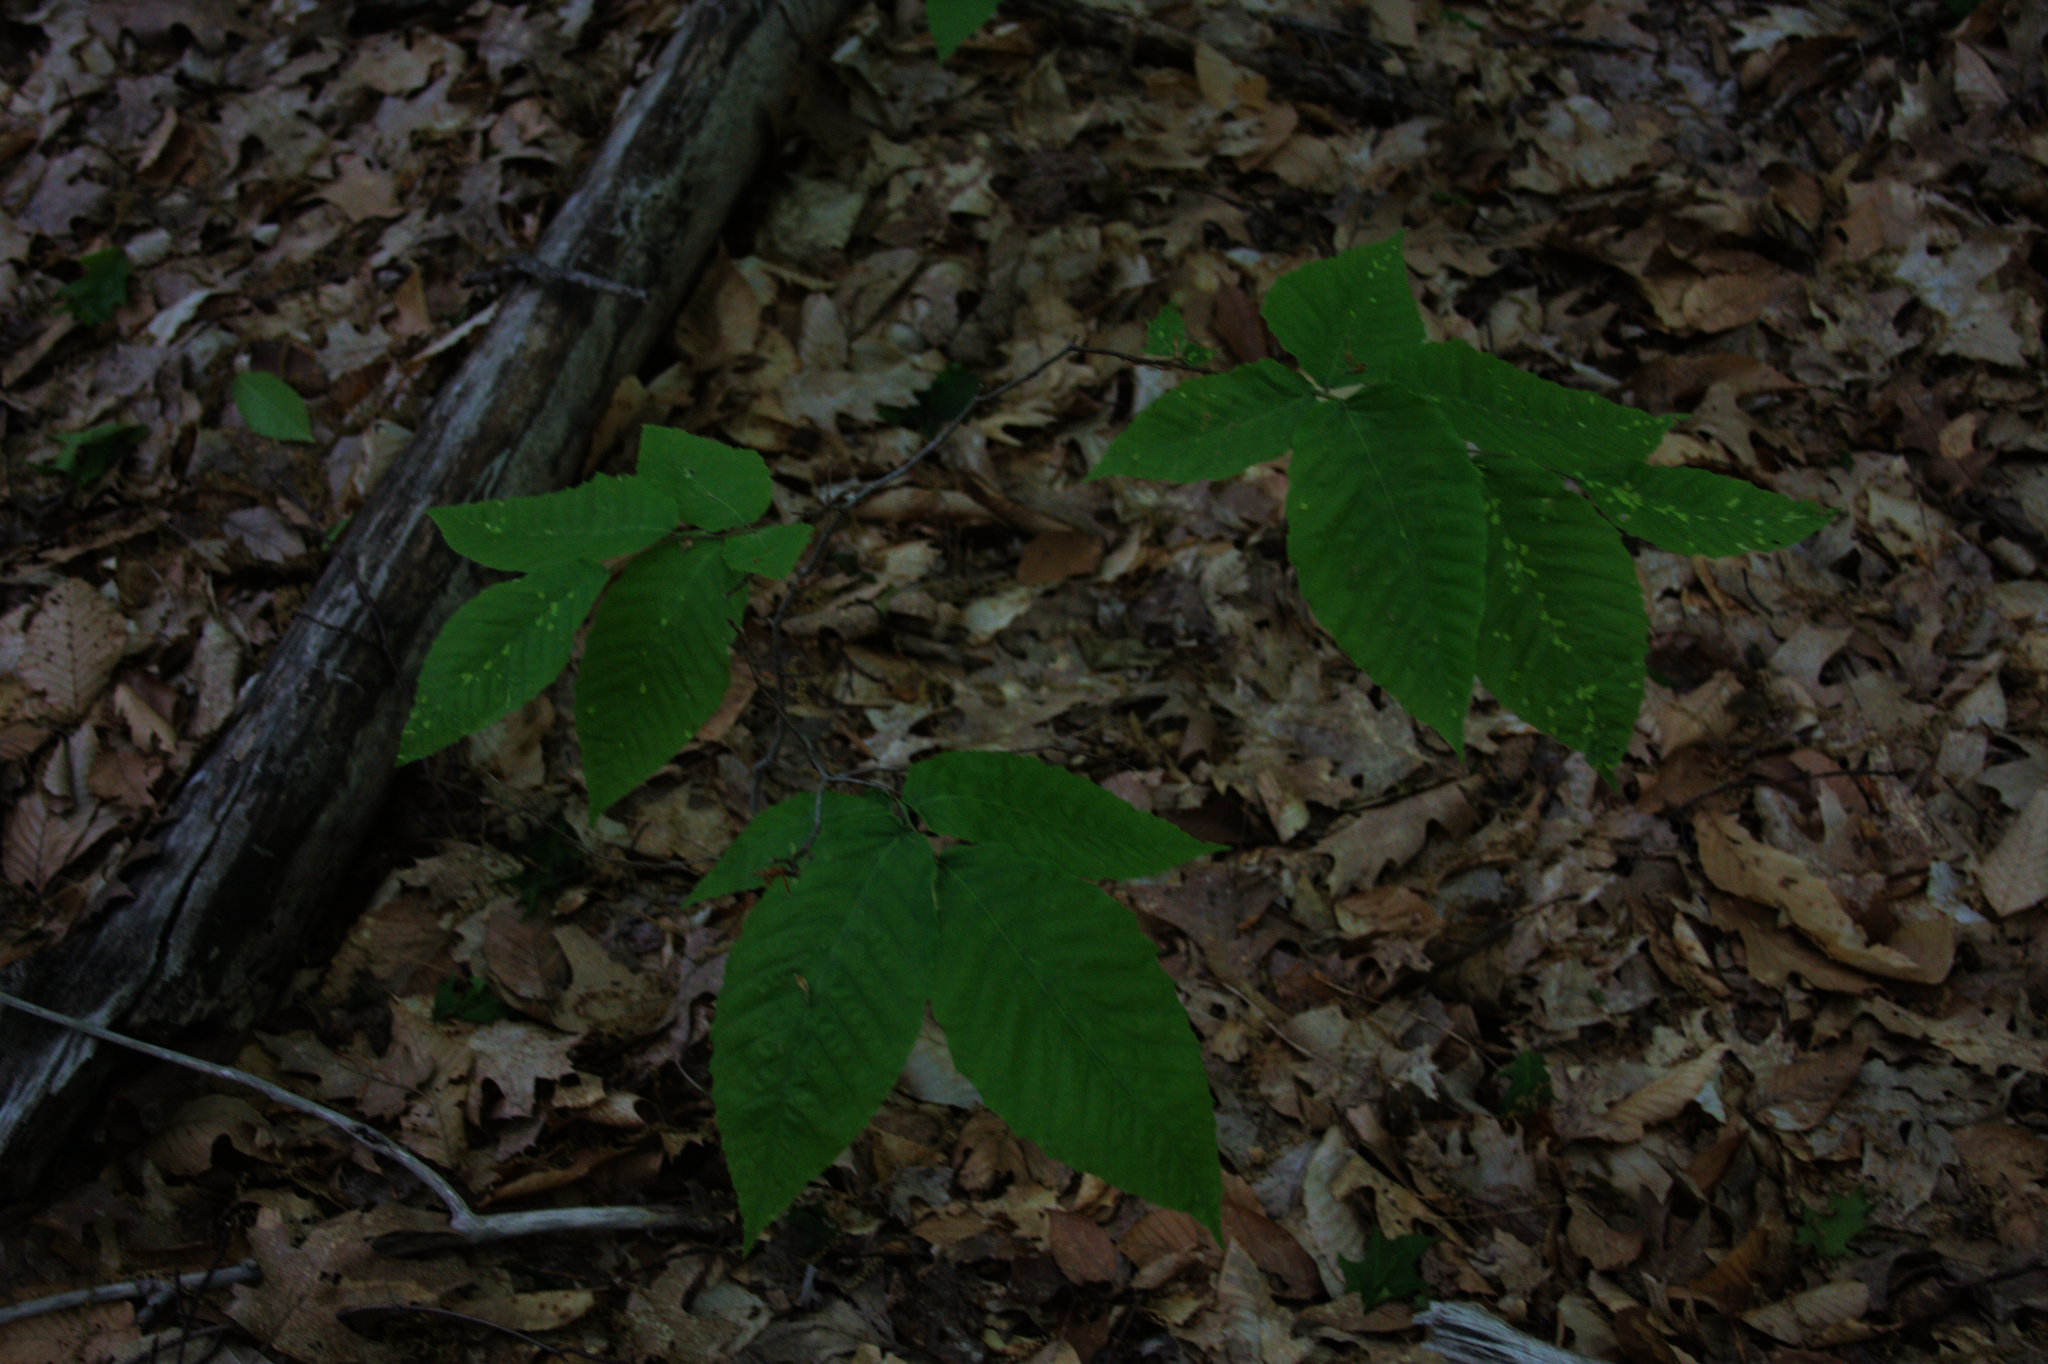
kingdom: Plantae
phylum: Tracheophyta
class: Magnoliopsida
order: Fagales
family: Fagaceae
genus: Fagus
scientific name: Fagus grandifolia
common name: American beech
